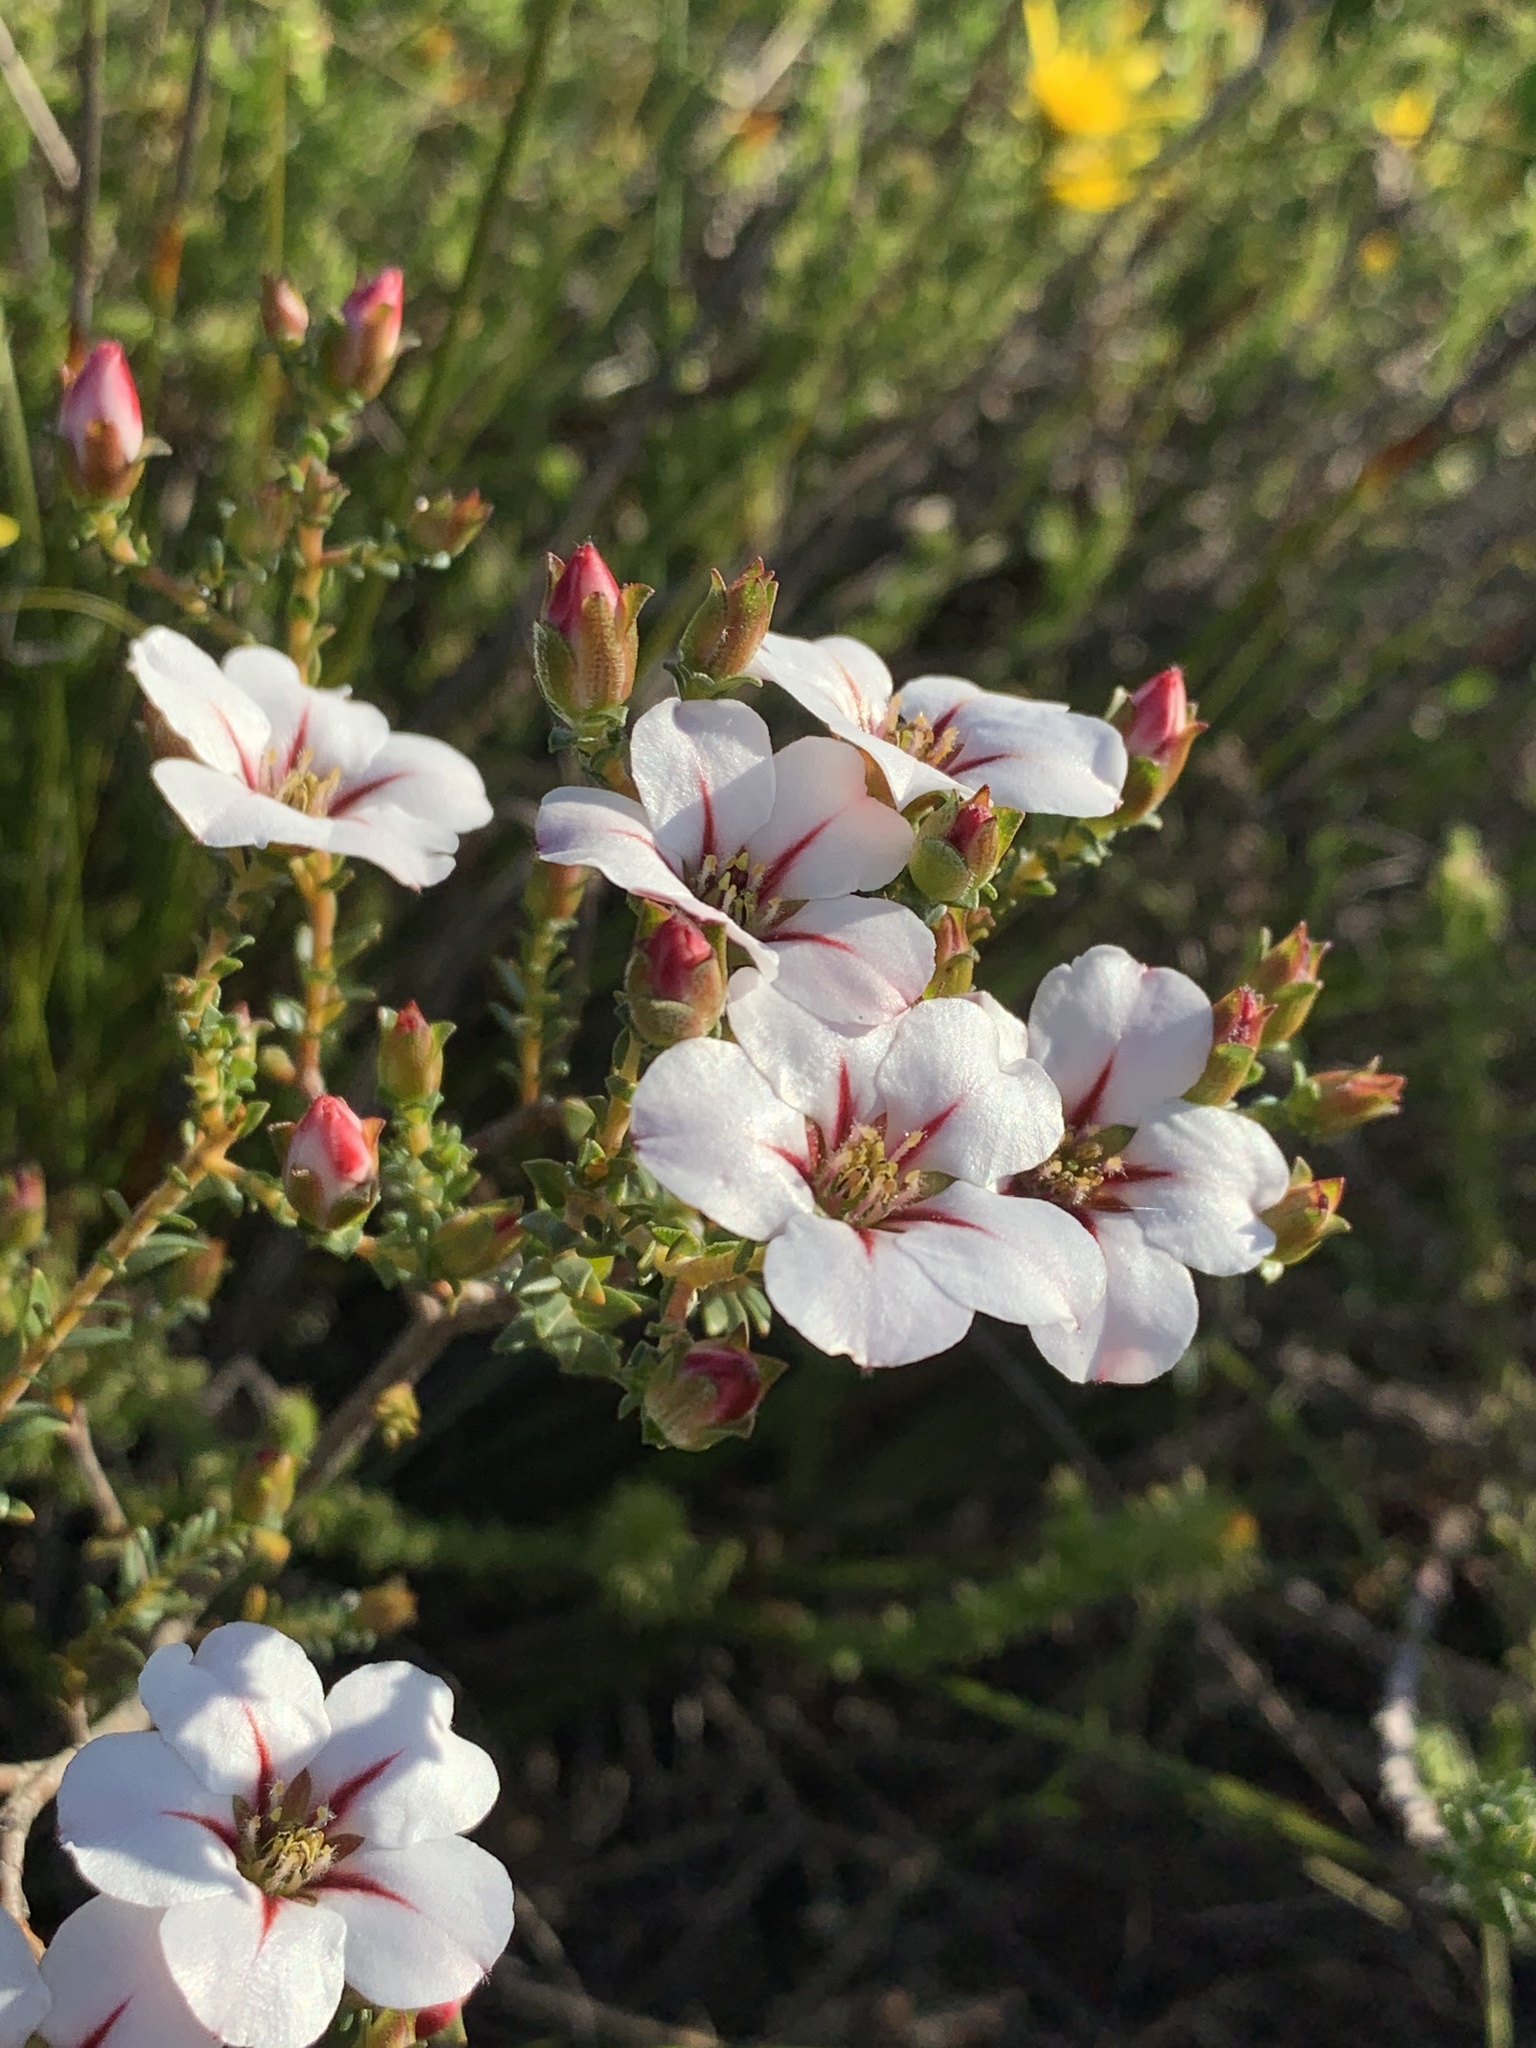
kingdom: Plantae
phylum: Tracheophyta
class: Magnoliopsida
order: Sapindales
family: Rutaceae
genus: Adenandra
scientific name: Adenandra villosa
